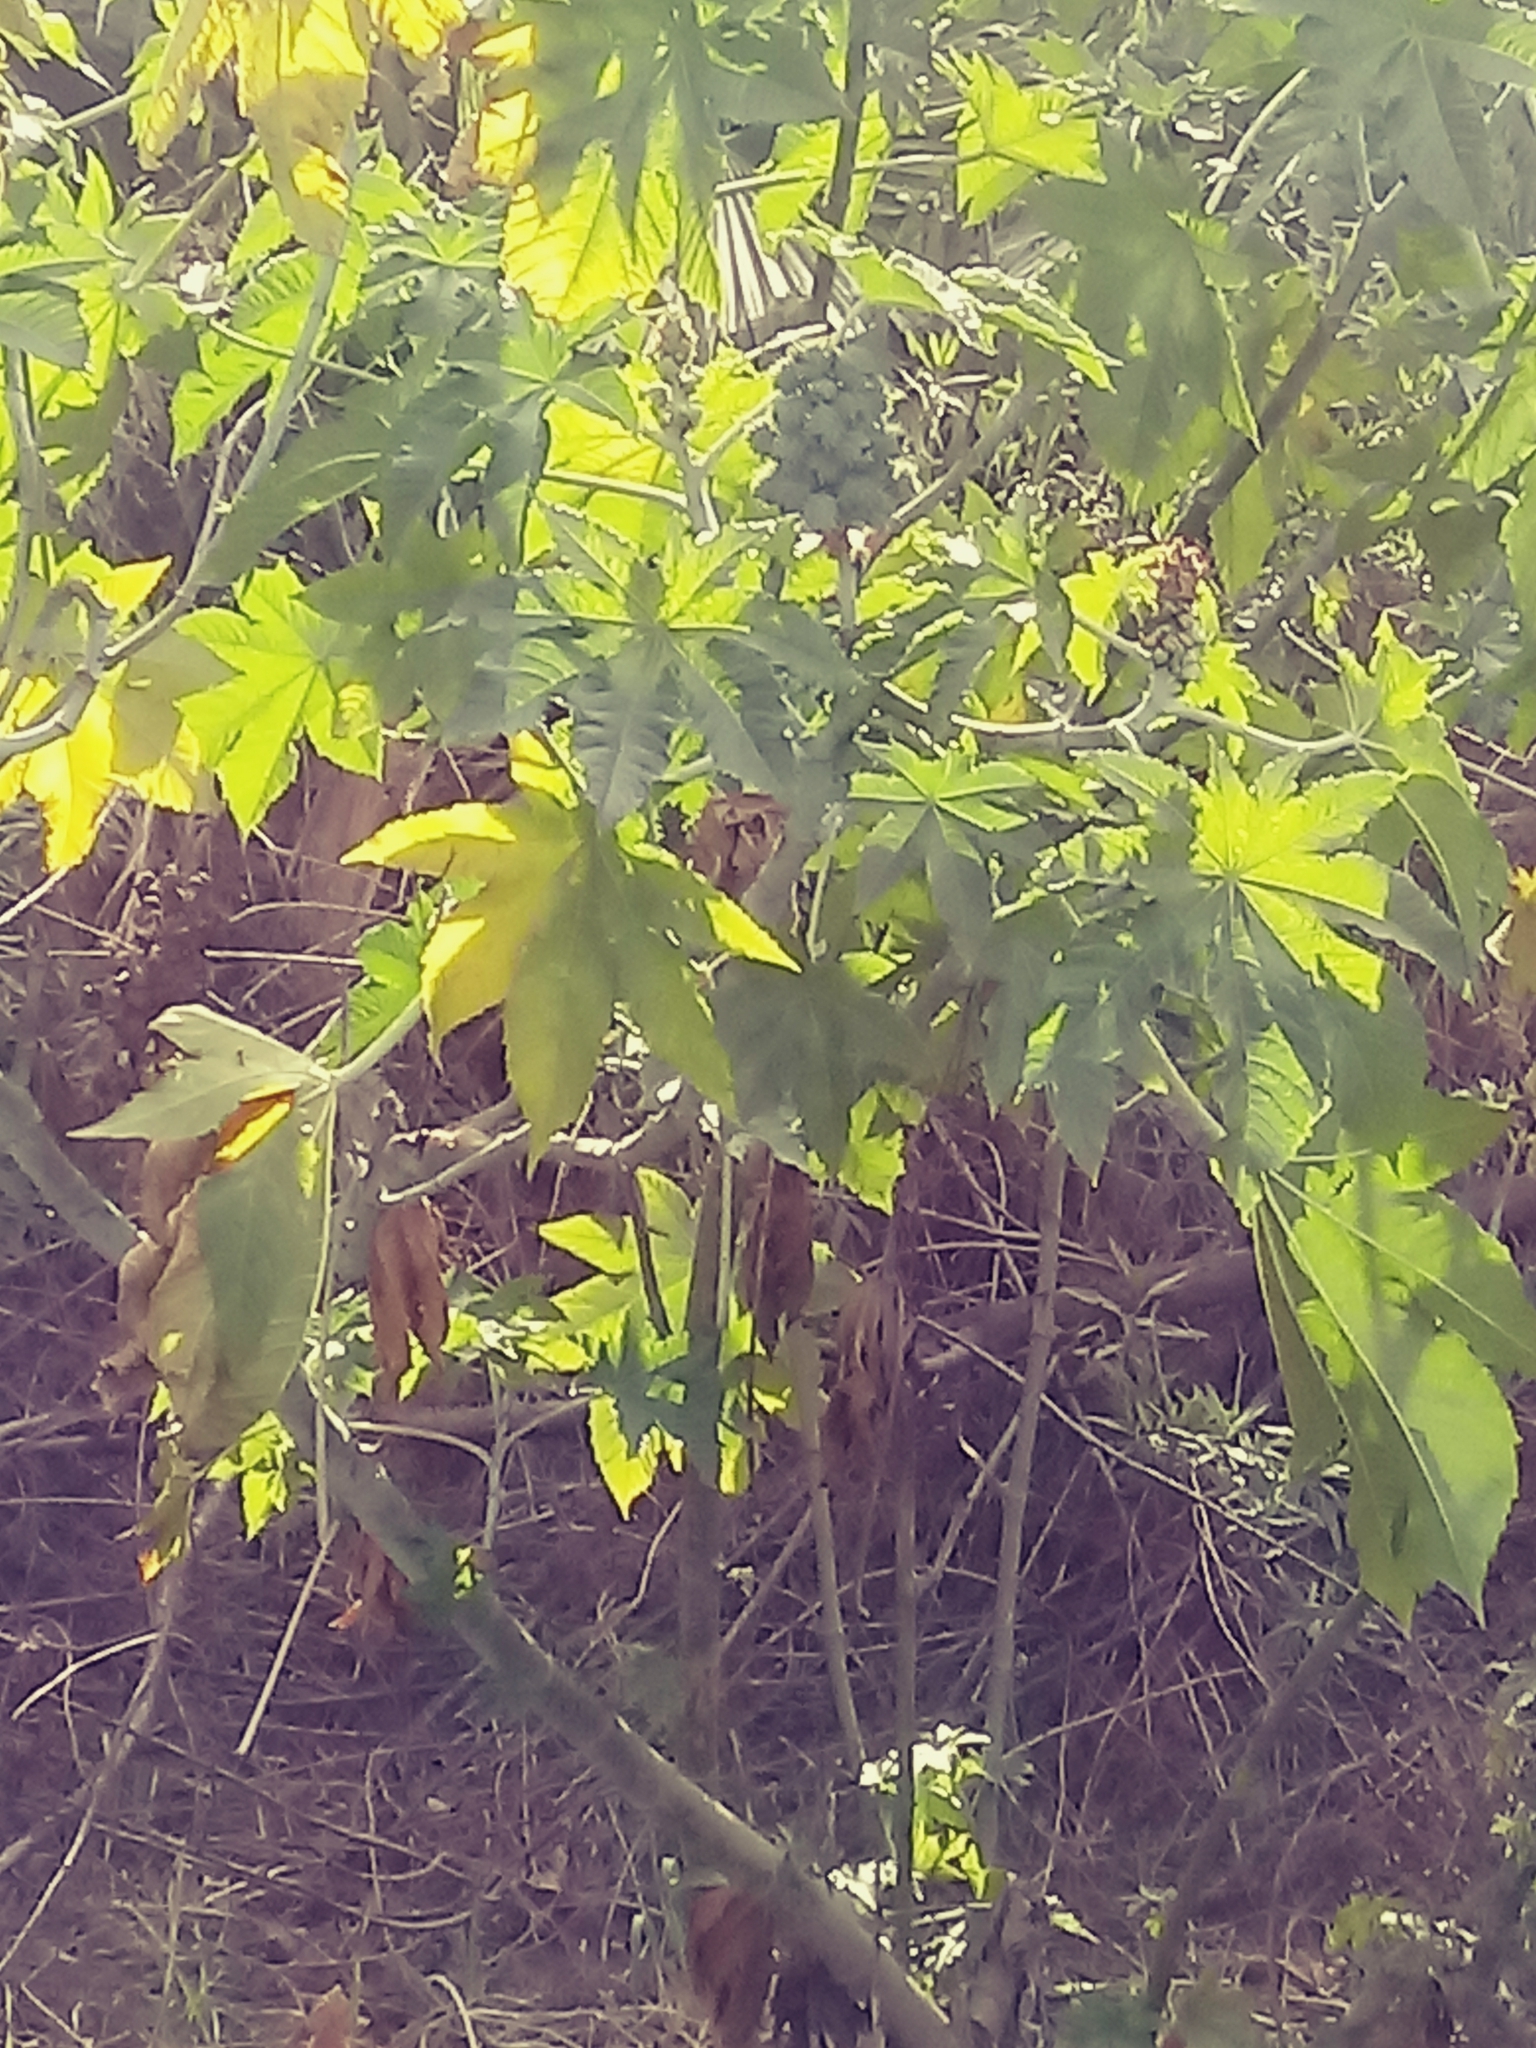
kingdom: Plantae
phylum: Tracheophyta
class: Magnoliopsida
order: Malpighiales
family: Euphorbiaceae
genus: Ricinus
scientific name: Ricinus communis
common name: Castor-oil-plant
